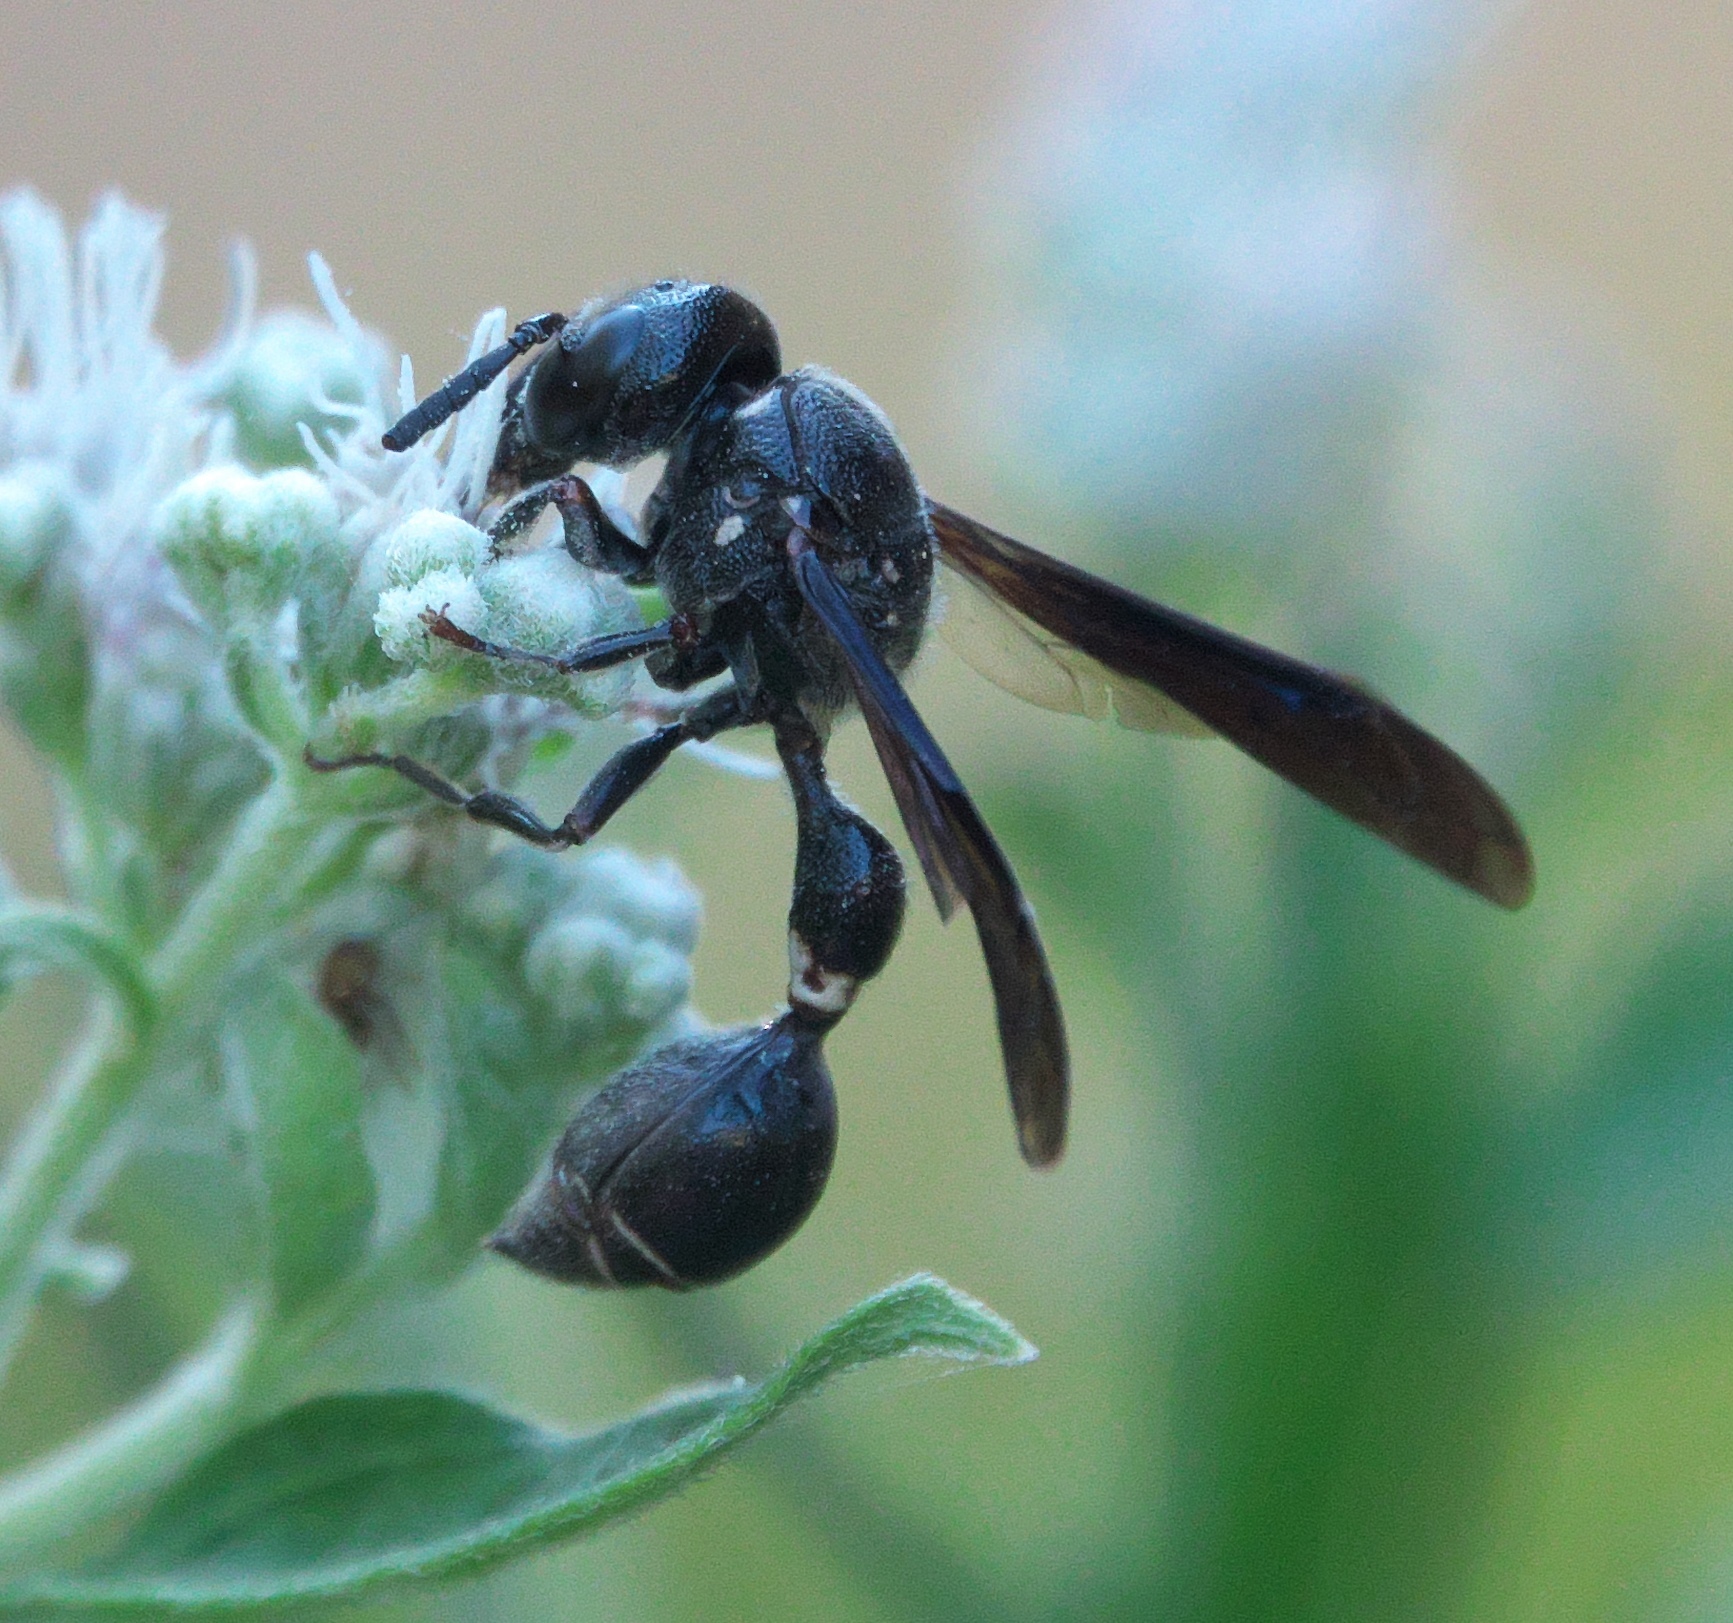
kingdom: Animalia
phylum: Arthropoda
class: Insecta
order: Hymenoptera
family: Eumenidae
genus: Zethus
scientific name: Zethus spinipes
